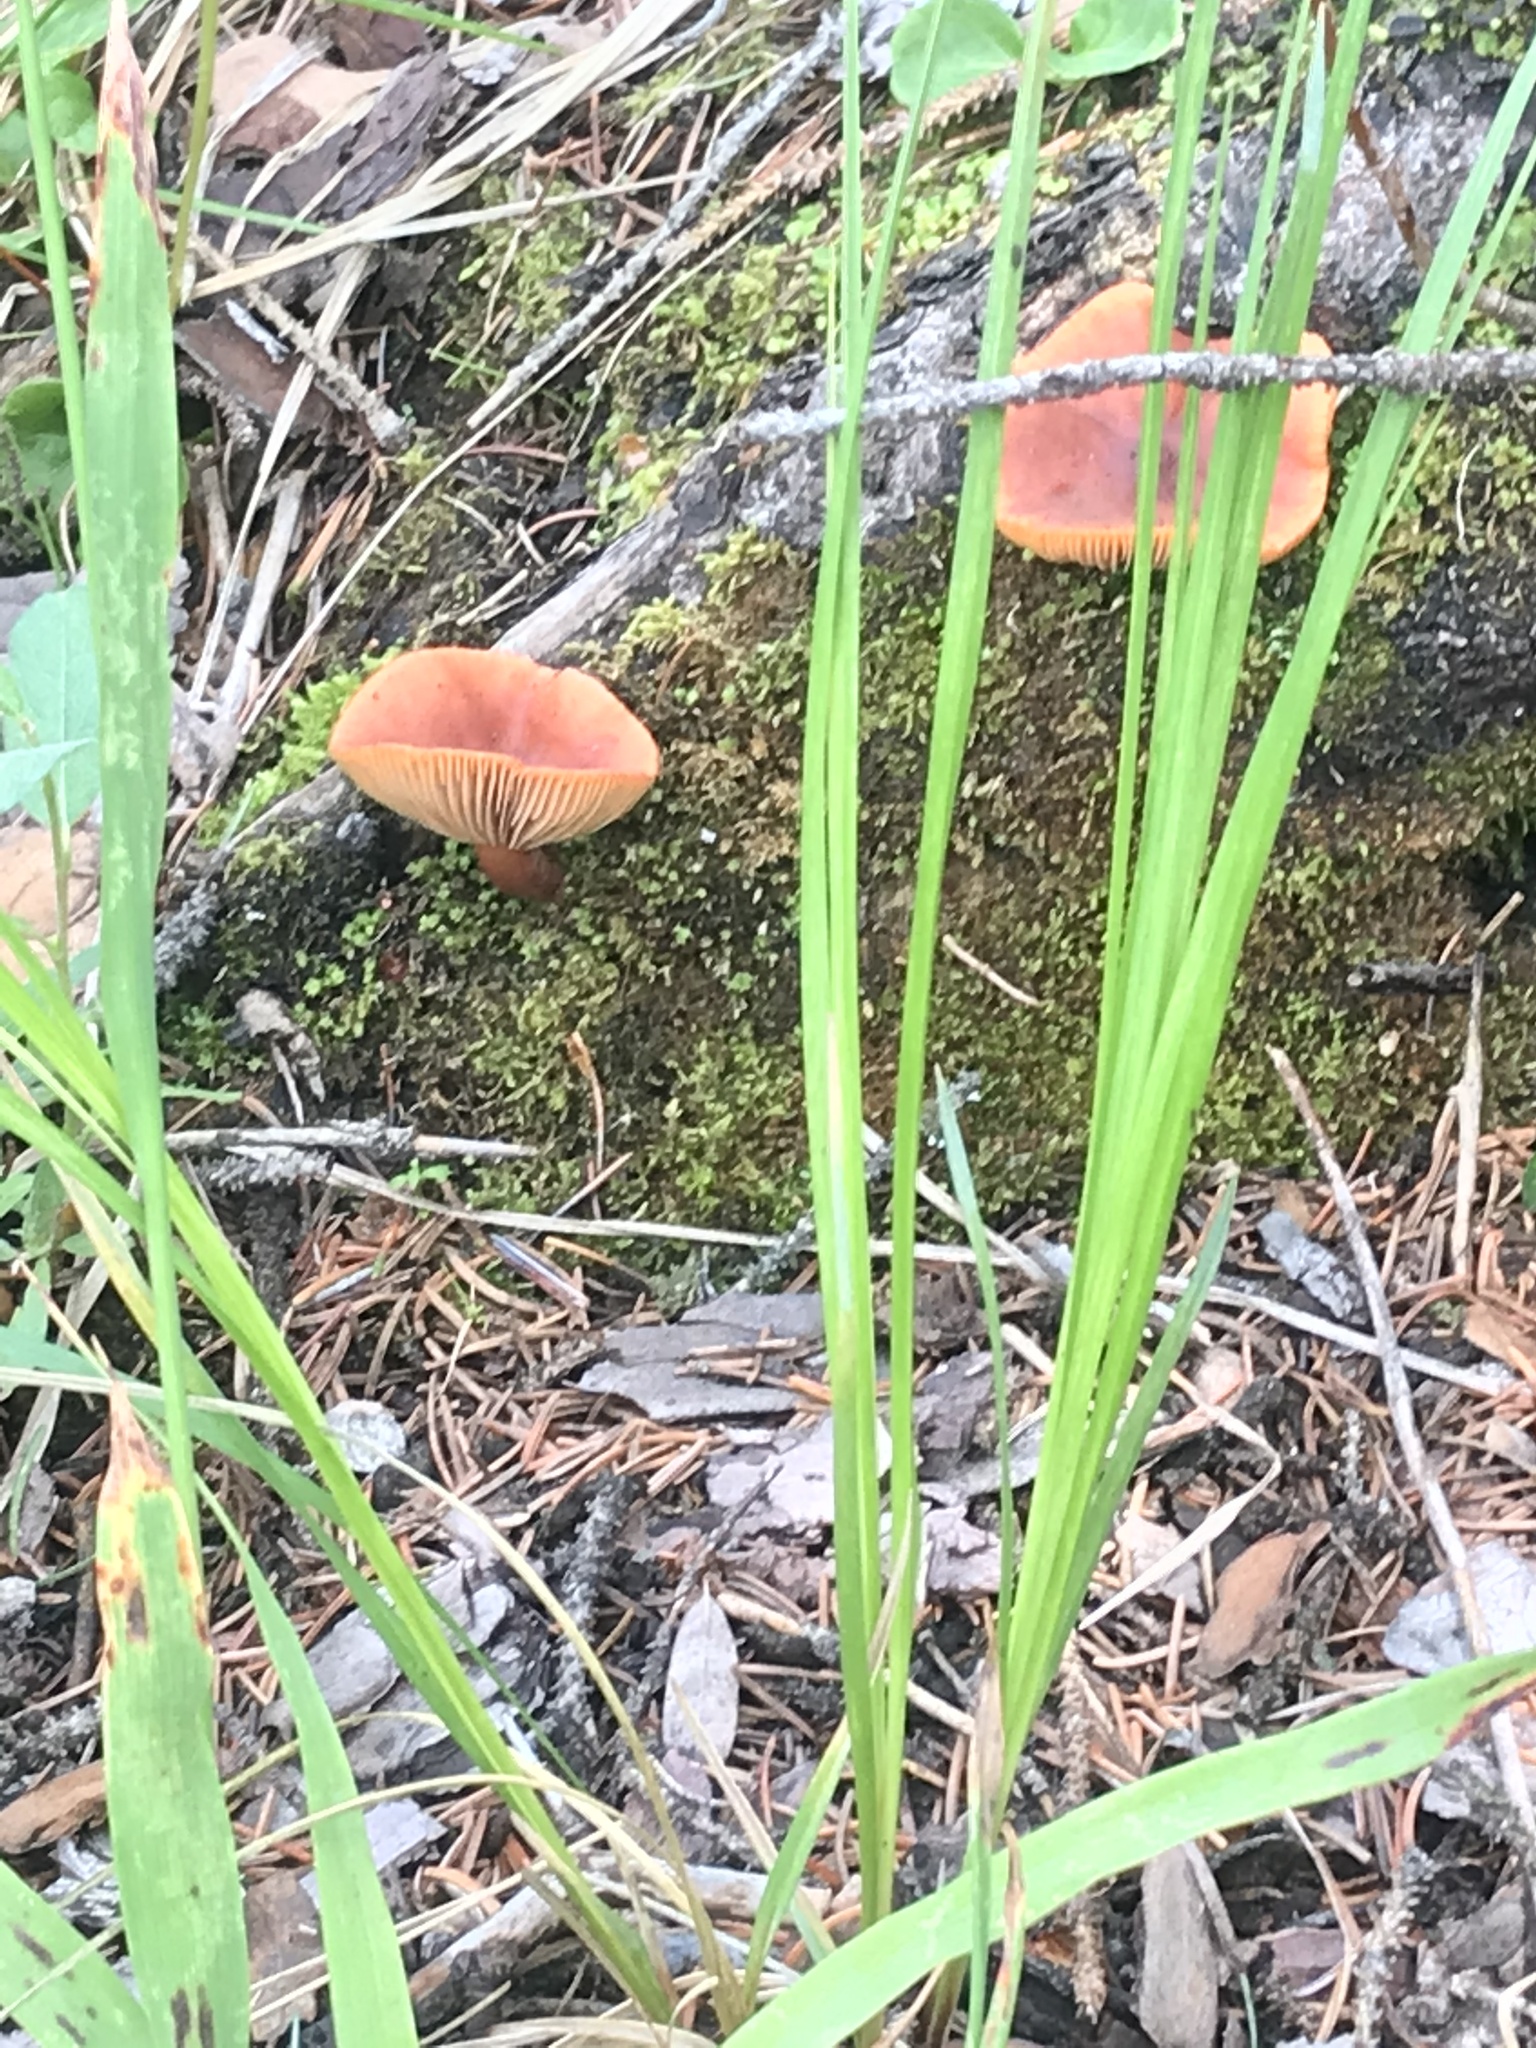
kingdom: Fungi
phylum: Basidiomycota
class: Agaricomycetes
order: Agaricales
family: Hydnangiaceae
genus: Laccaria
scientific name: Laccaria laccata
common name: Deceiver
